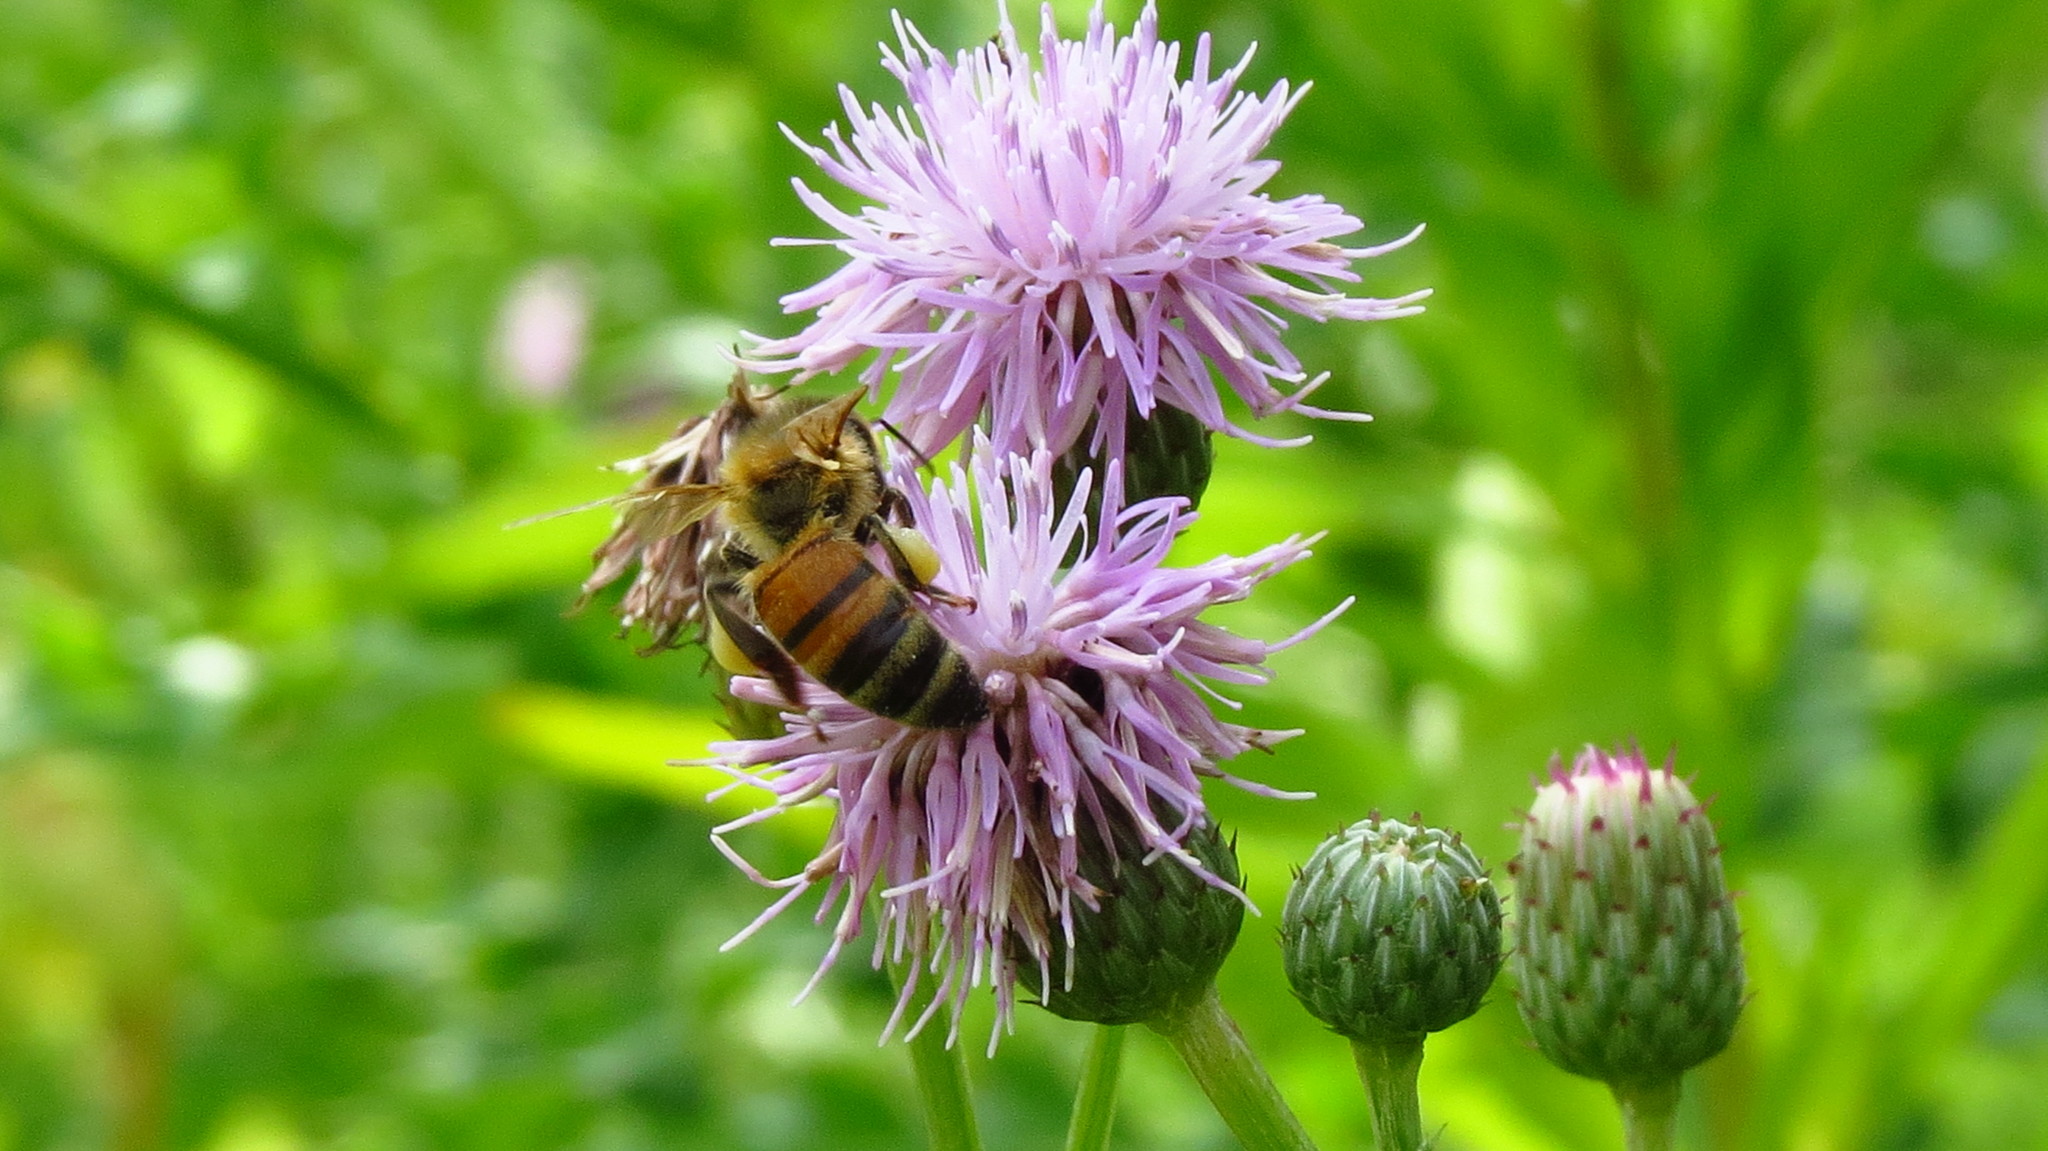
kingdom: Animalia
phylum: Arthropoda
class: Insecta
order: Hymenoptera
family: Apidae
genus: Apis
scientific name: Apis mellifera
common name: Honey bee
